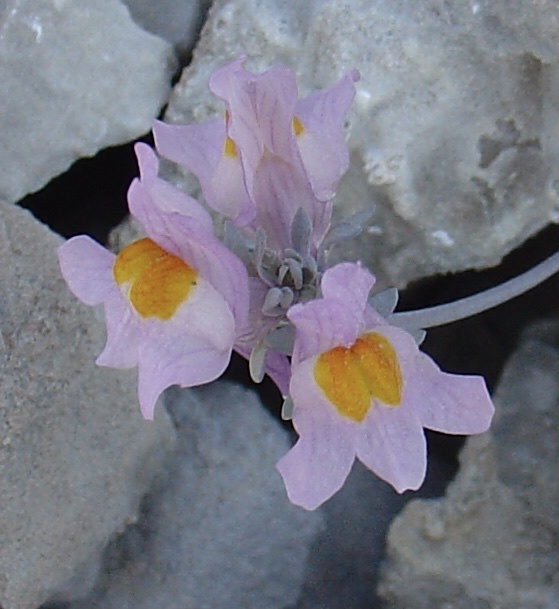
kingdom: Plantae
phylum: Tracheophyta
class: Magnoliopsida
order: Lamiales
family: Plantaginaceae
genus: Linaria
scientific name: Linaria alpina
